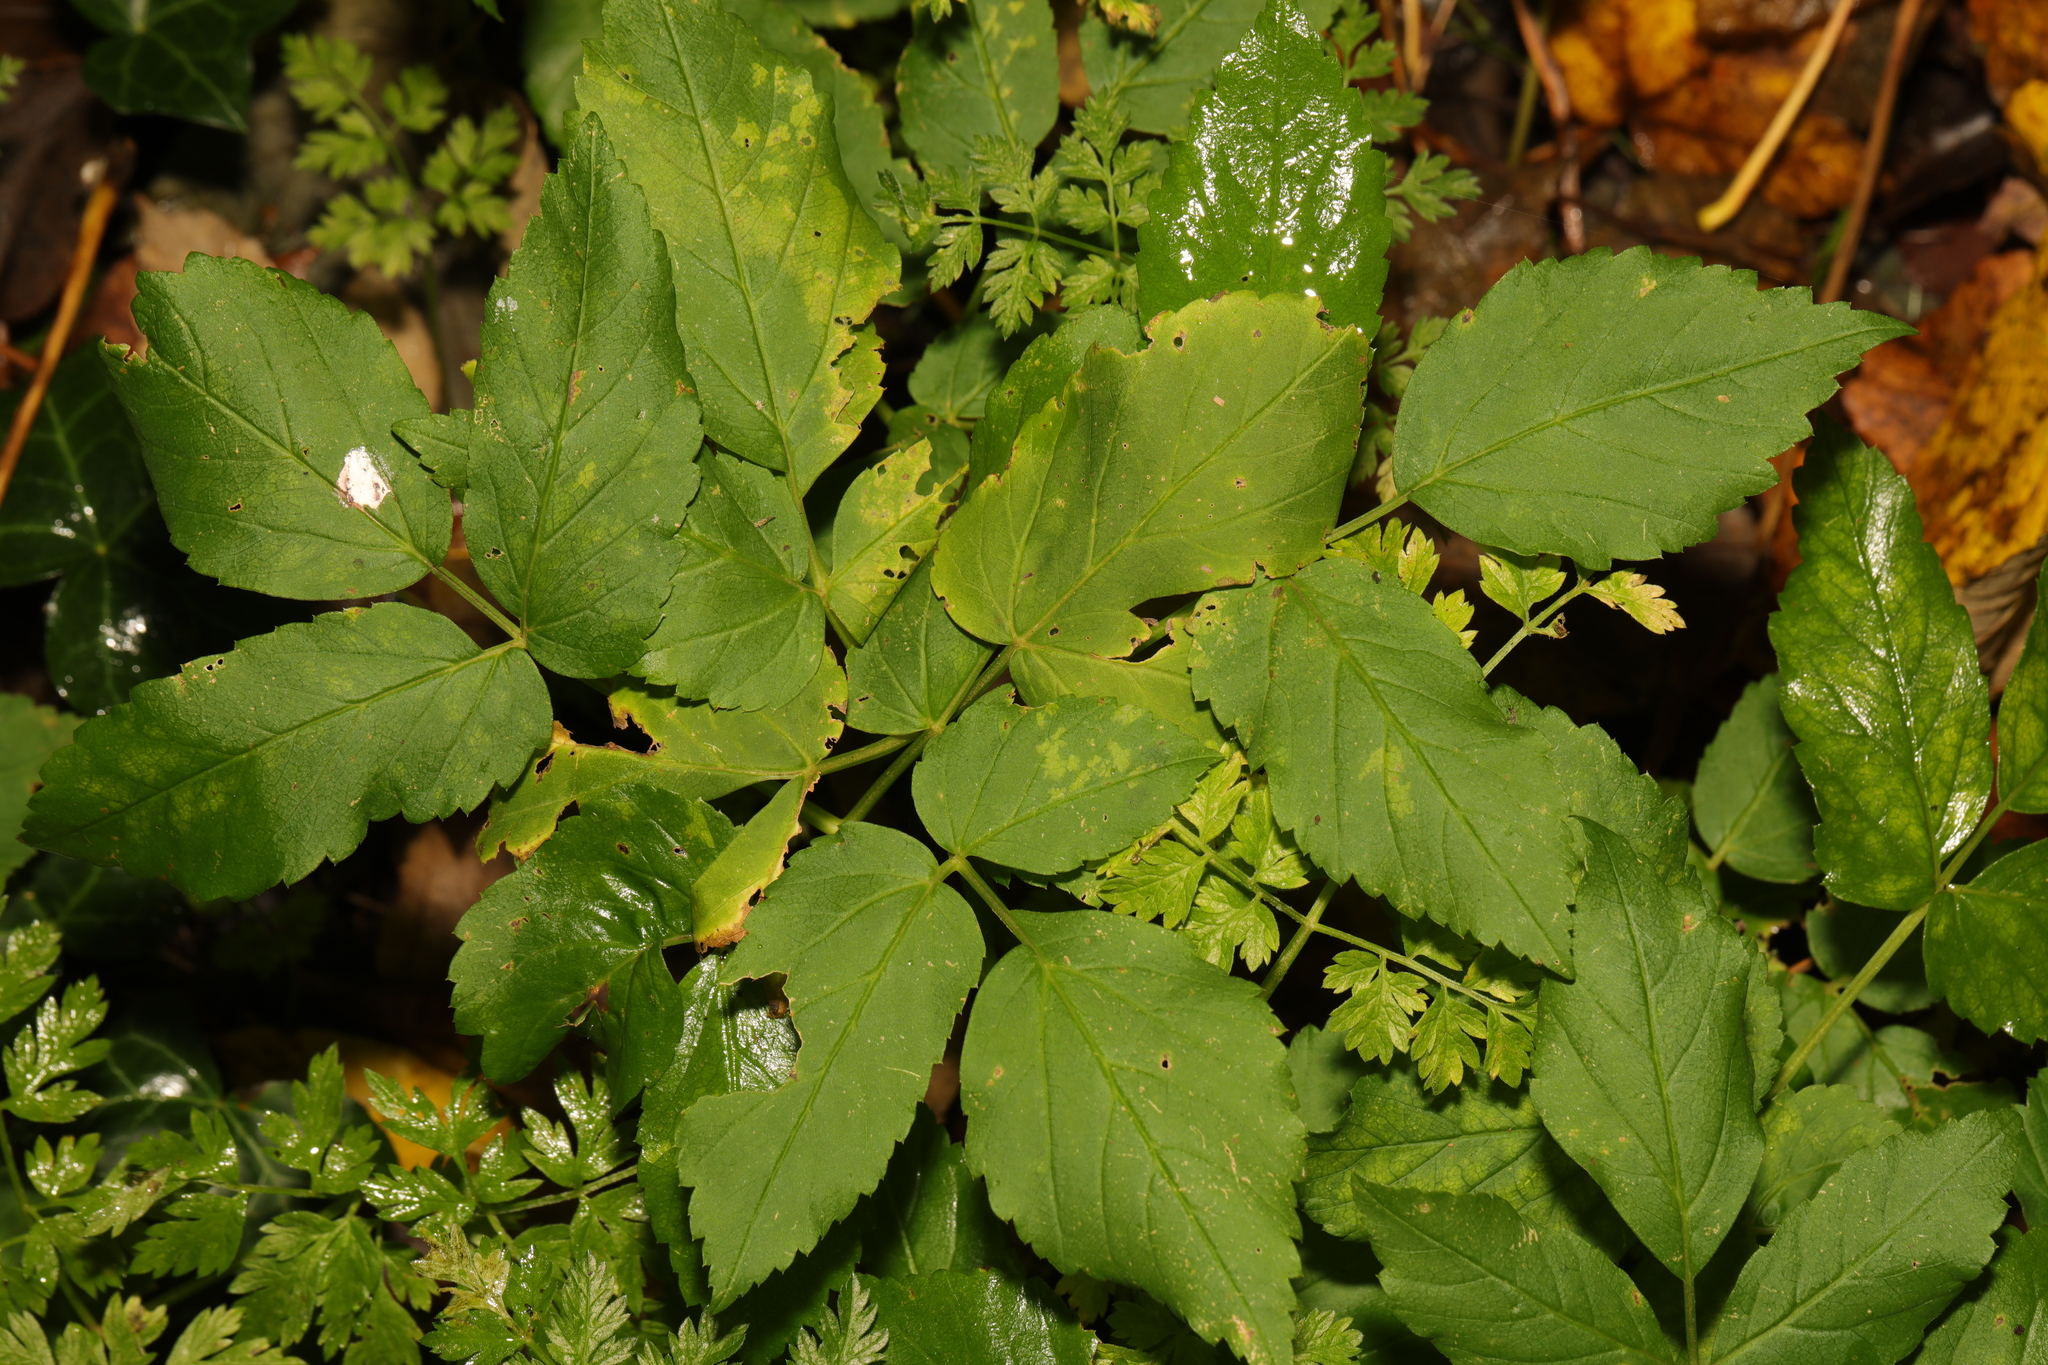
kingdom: Plantae
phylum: Tracheophyta
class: Magnoliopsida
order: Apiales
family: Apiaceae
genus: Aegopodium
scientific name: Aegopodium podagraria
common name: Ground-elder
